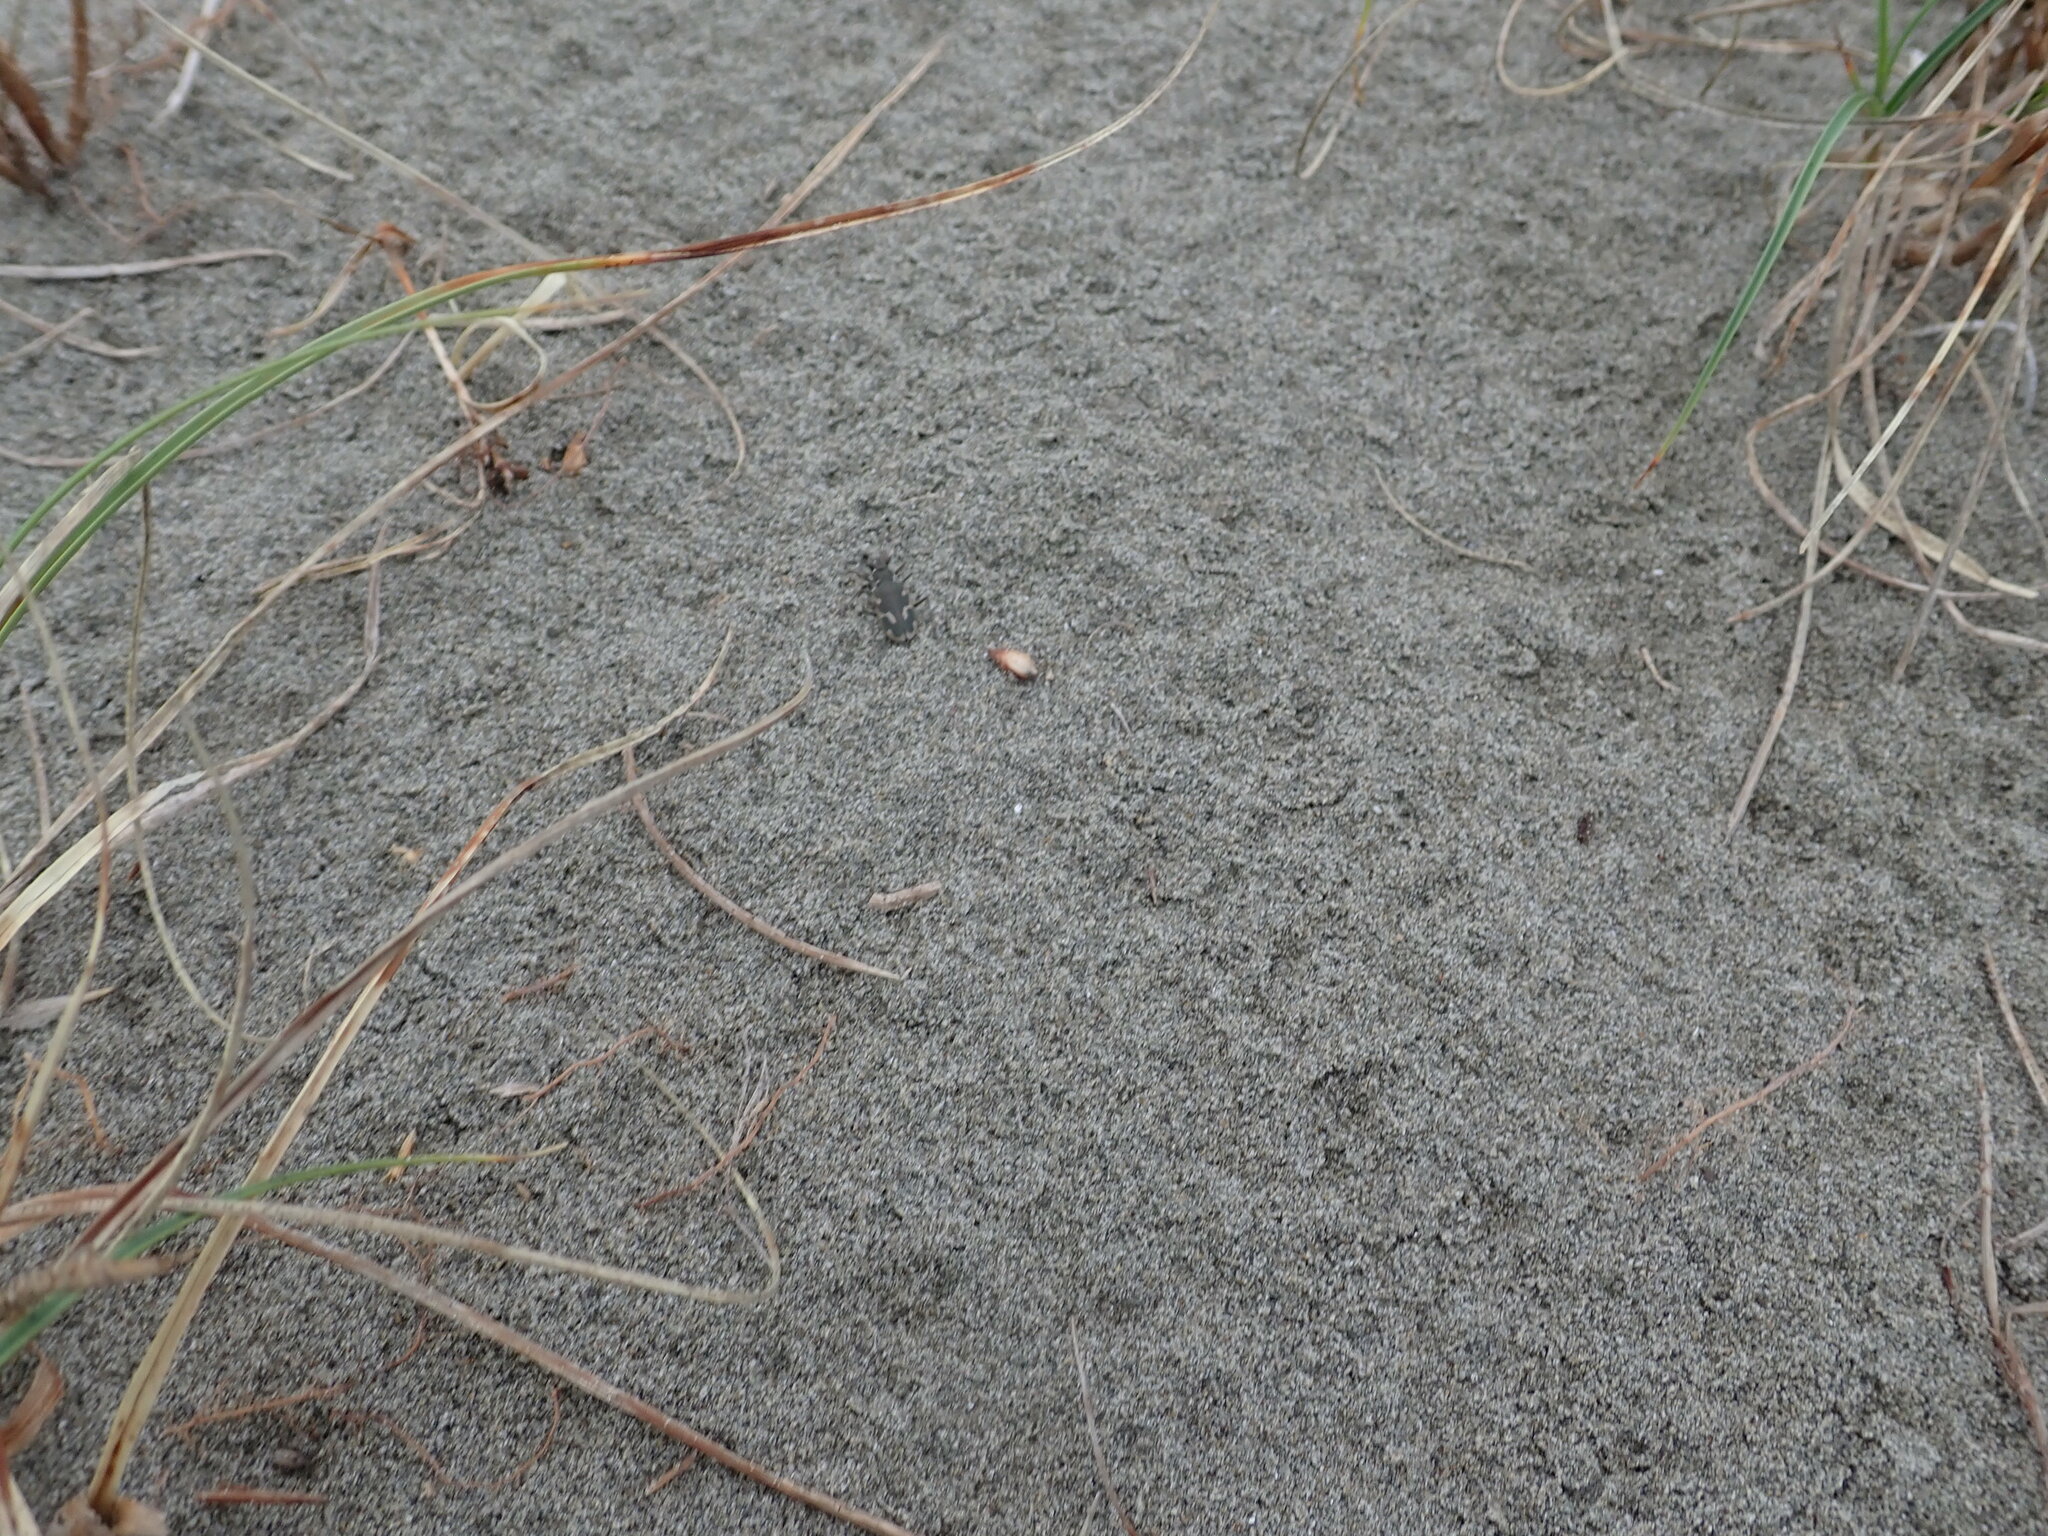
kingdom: Animalia
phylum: Arthropoda
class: Insecta
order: Coleoptera
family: Carabidae
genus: Zecicindela
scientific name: Zecicindela feredayi
